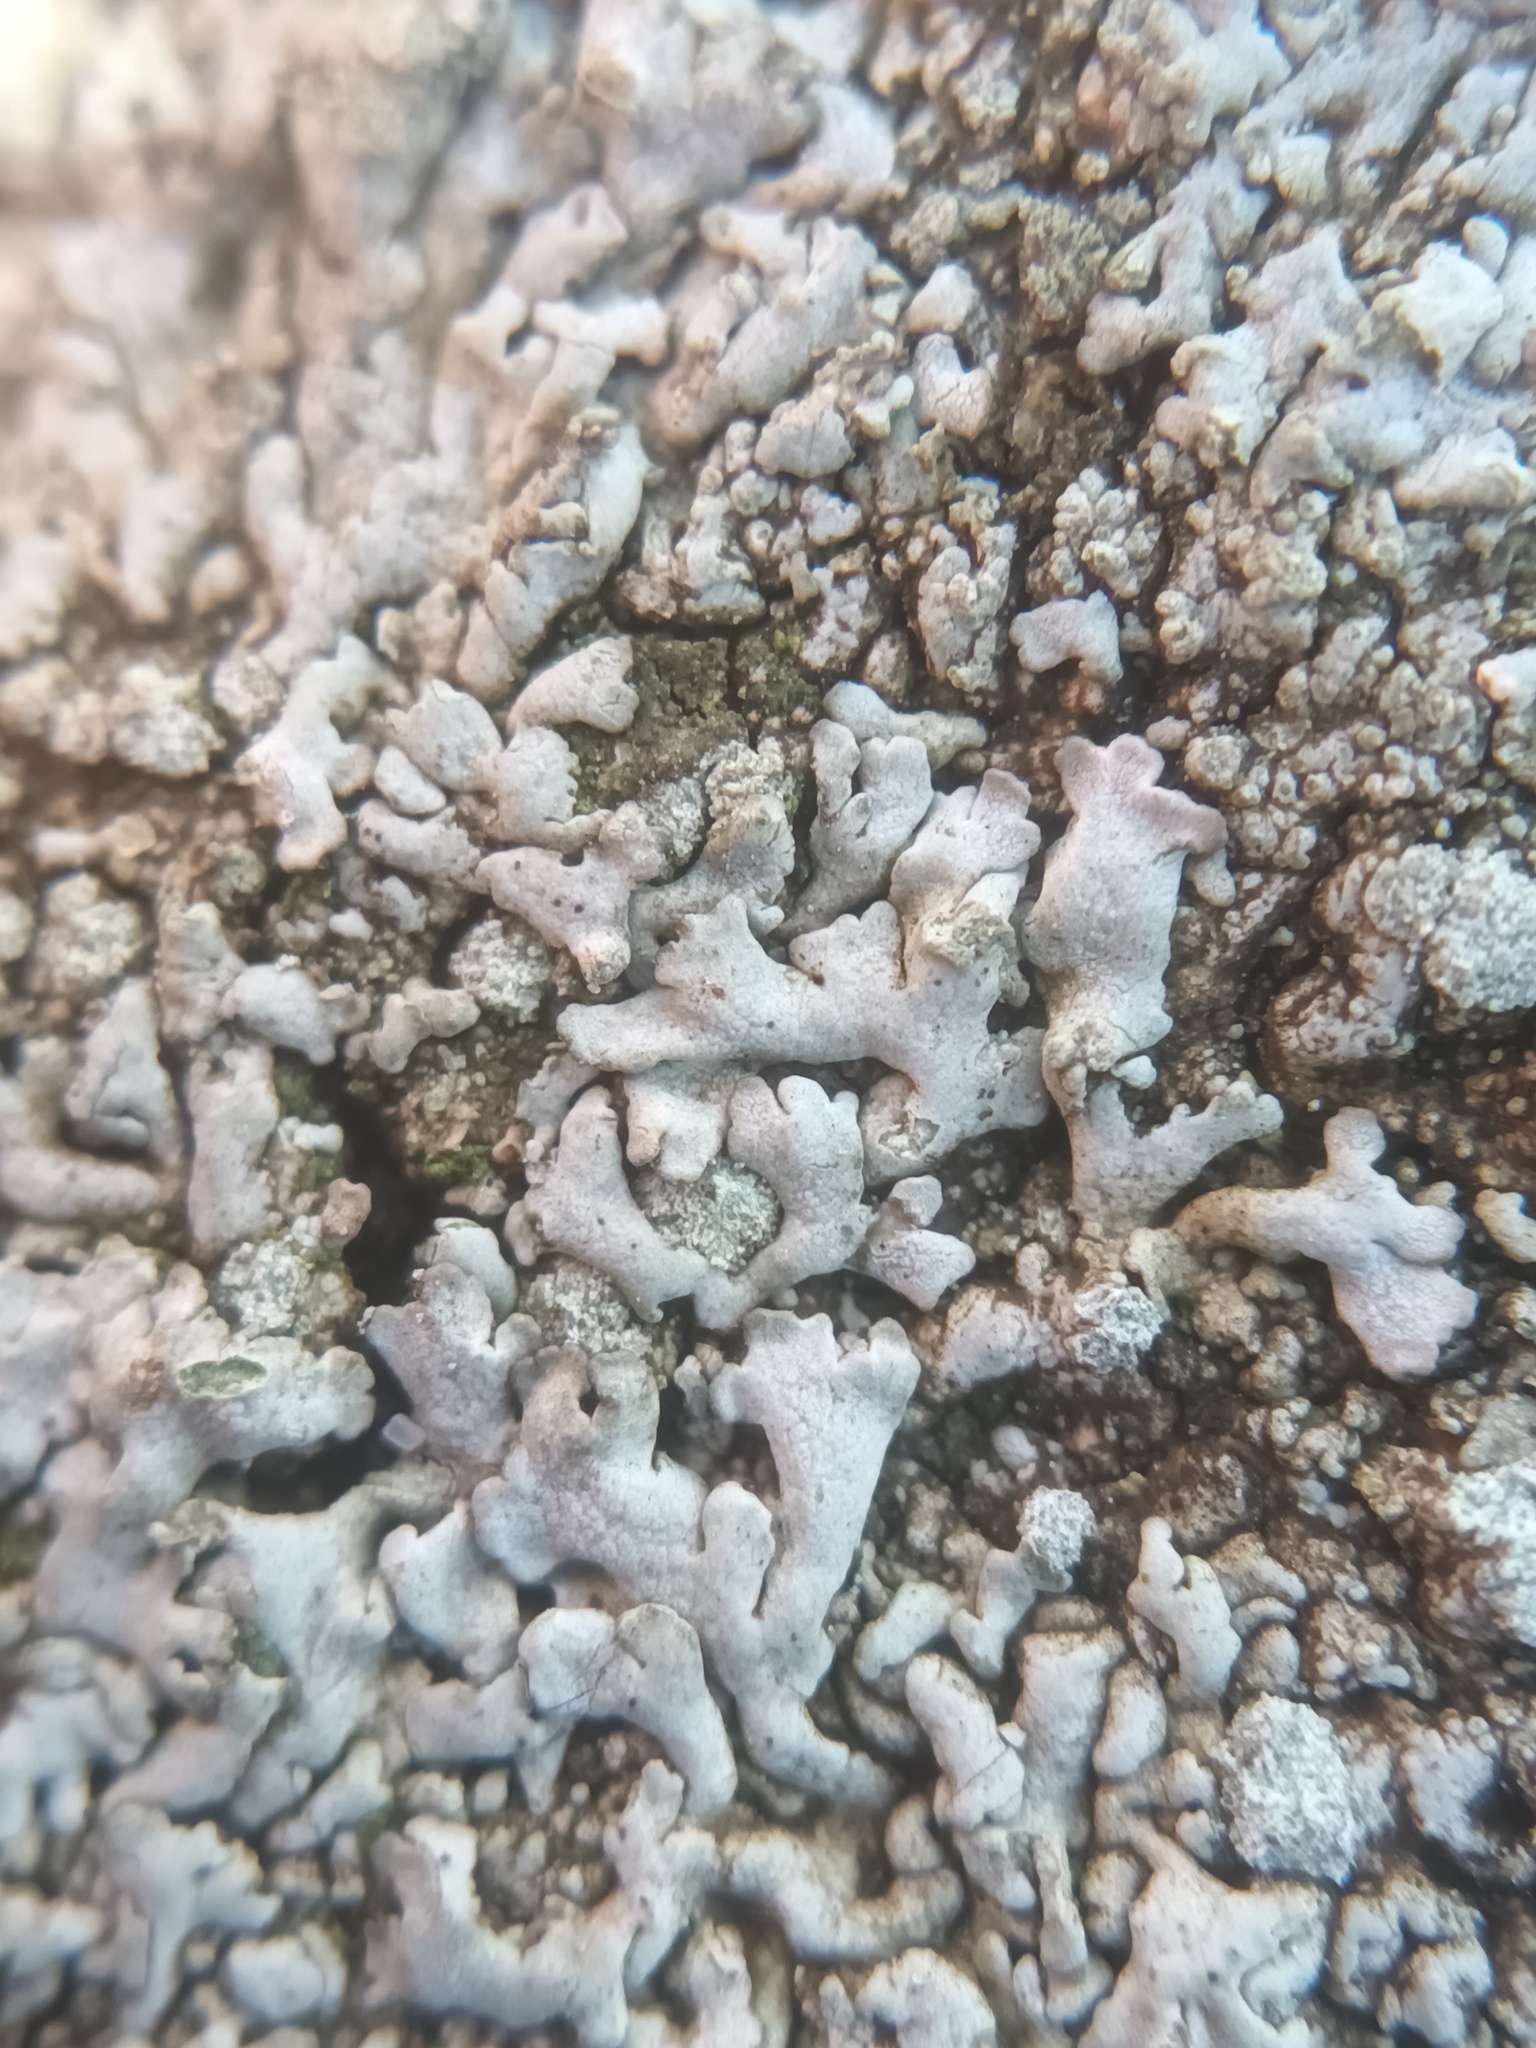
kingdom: Fungi
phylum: Ascomycota
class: Lecanoromycetes
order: Caliciales
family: Physciaceae
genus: Physcia
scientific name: Physcia caesia
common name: Blue-gray rosette lichen
